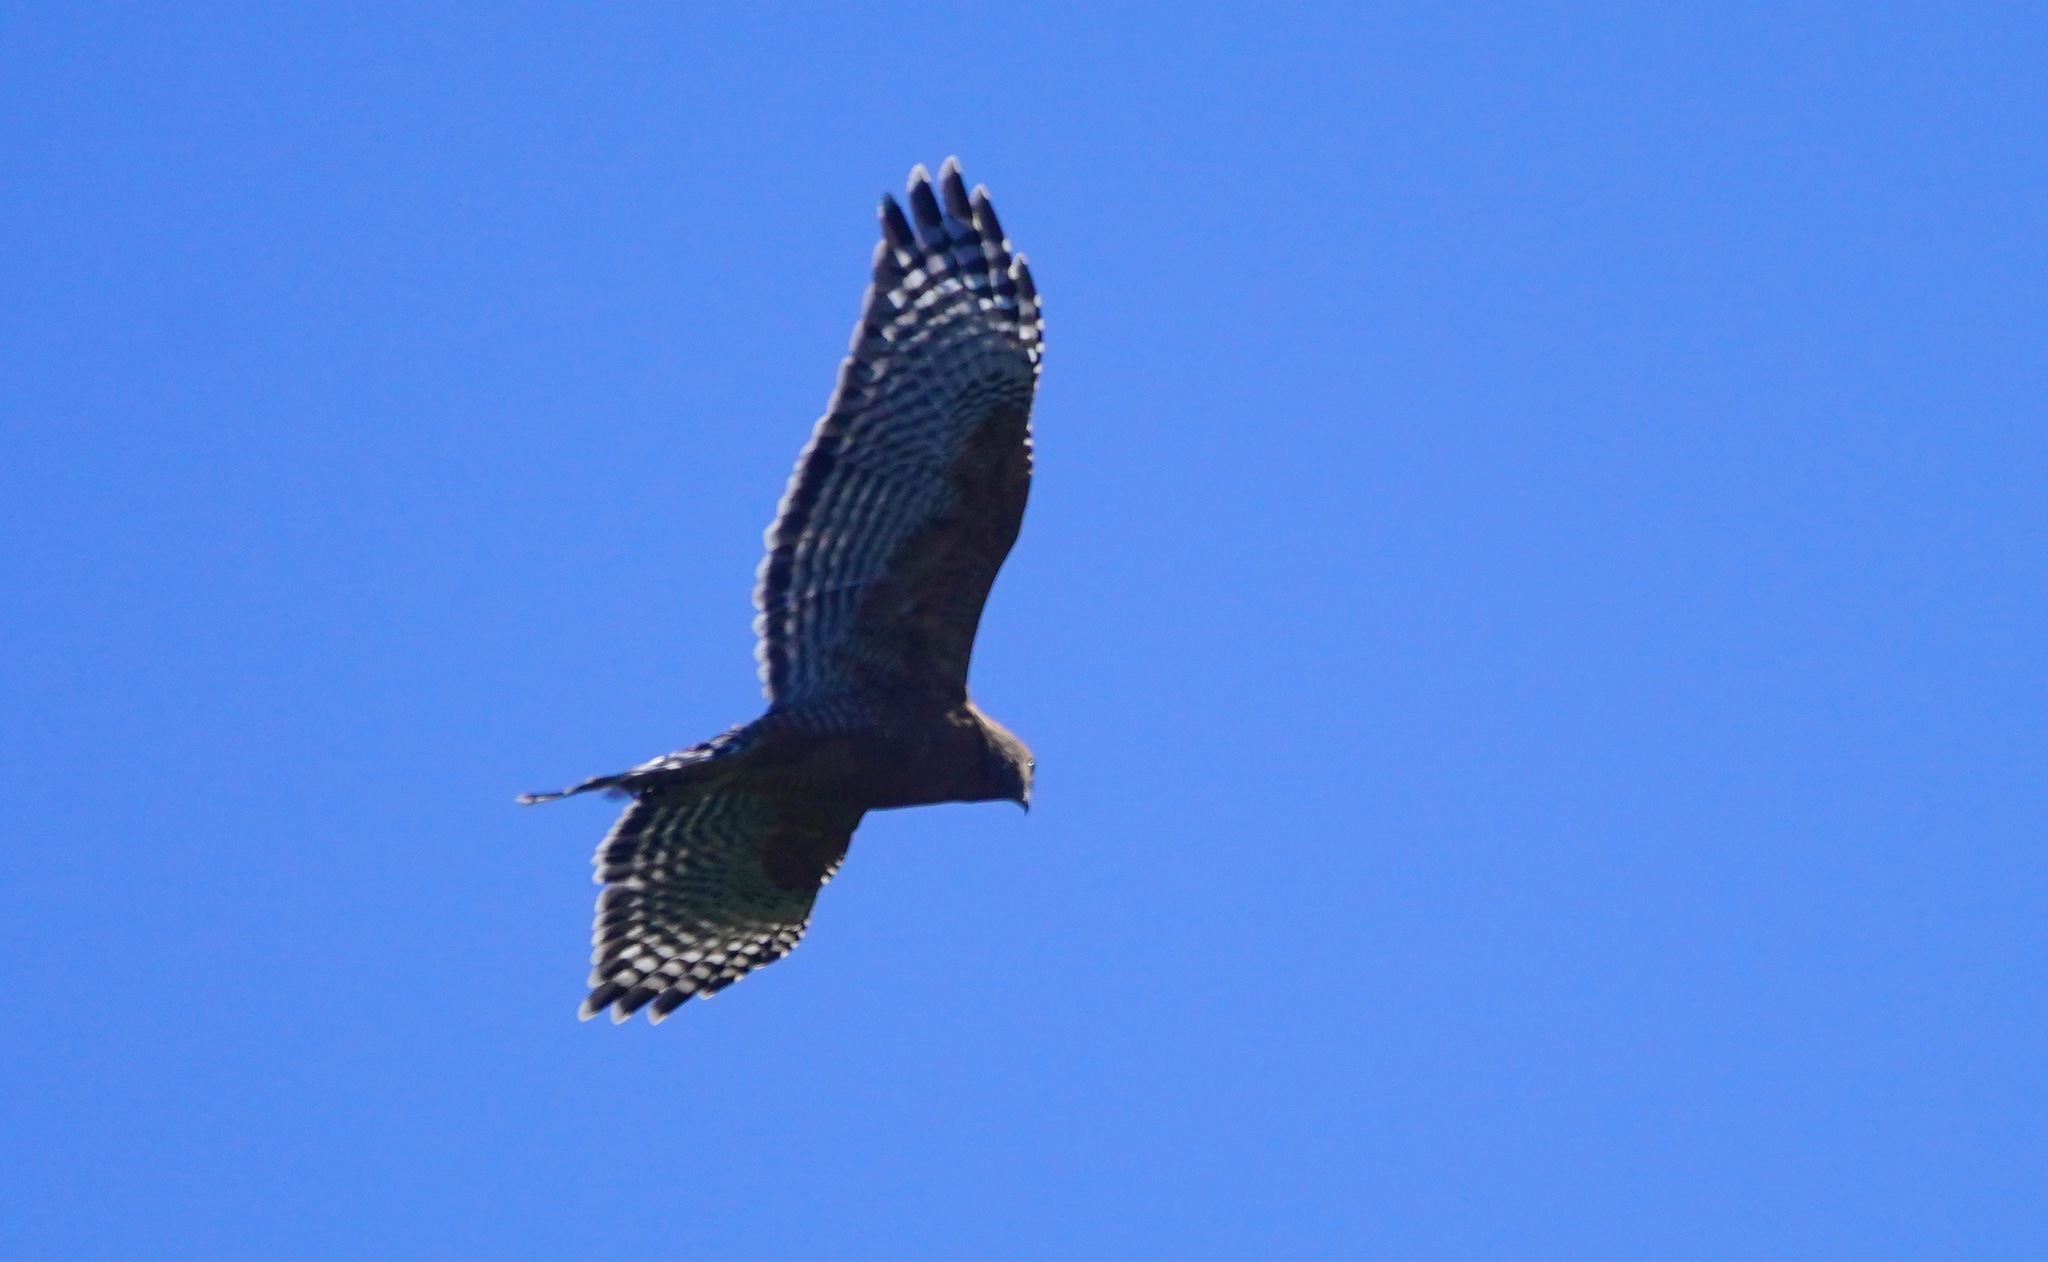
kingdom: Animalia
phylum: Chordata
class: Aves
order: Accipitriformes
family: Accipitridae
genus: Buteo
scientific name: Buteo lineatus
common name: Red-shouldered hawk
